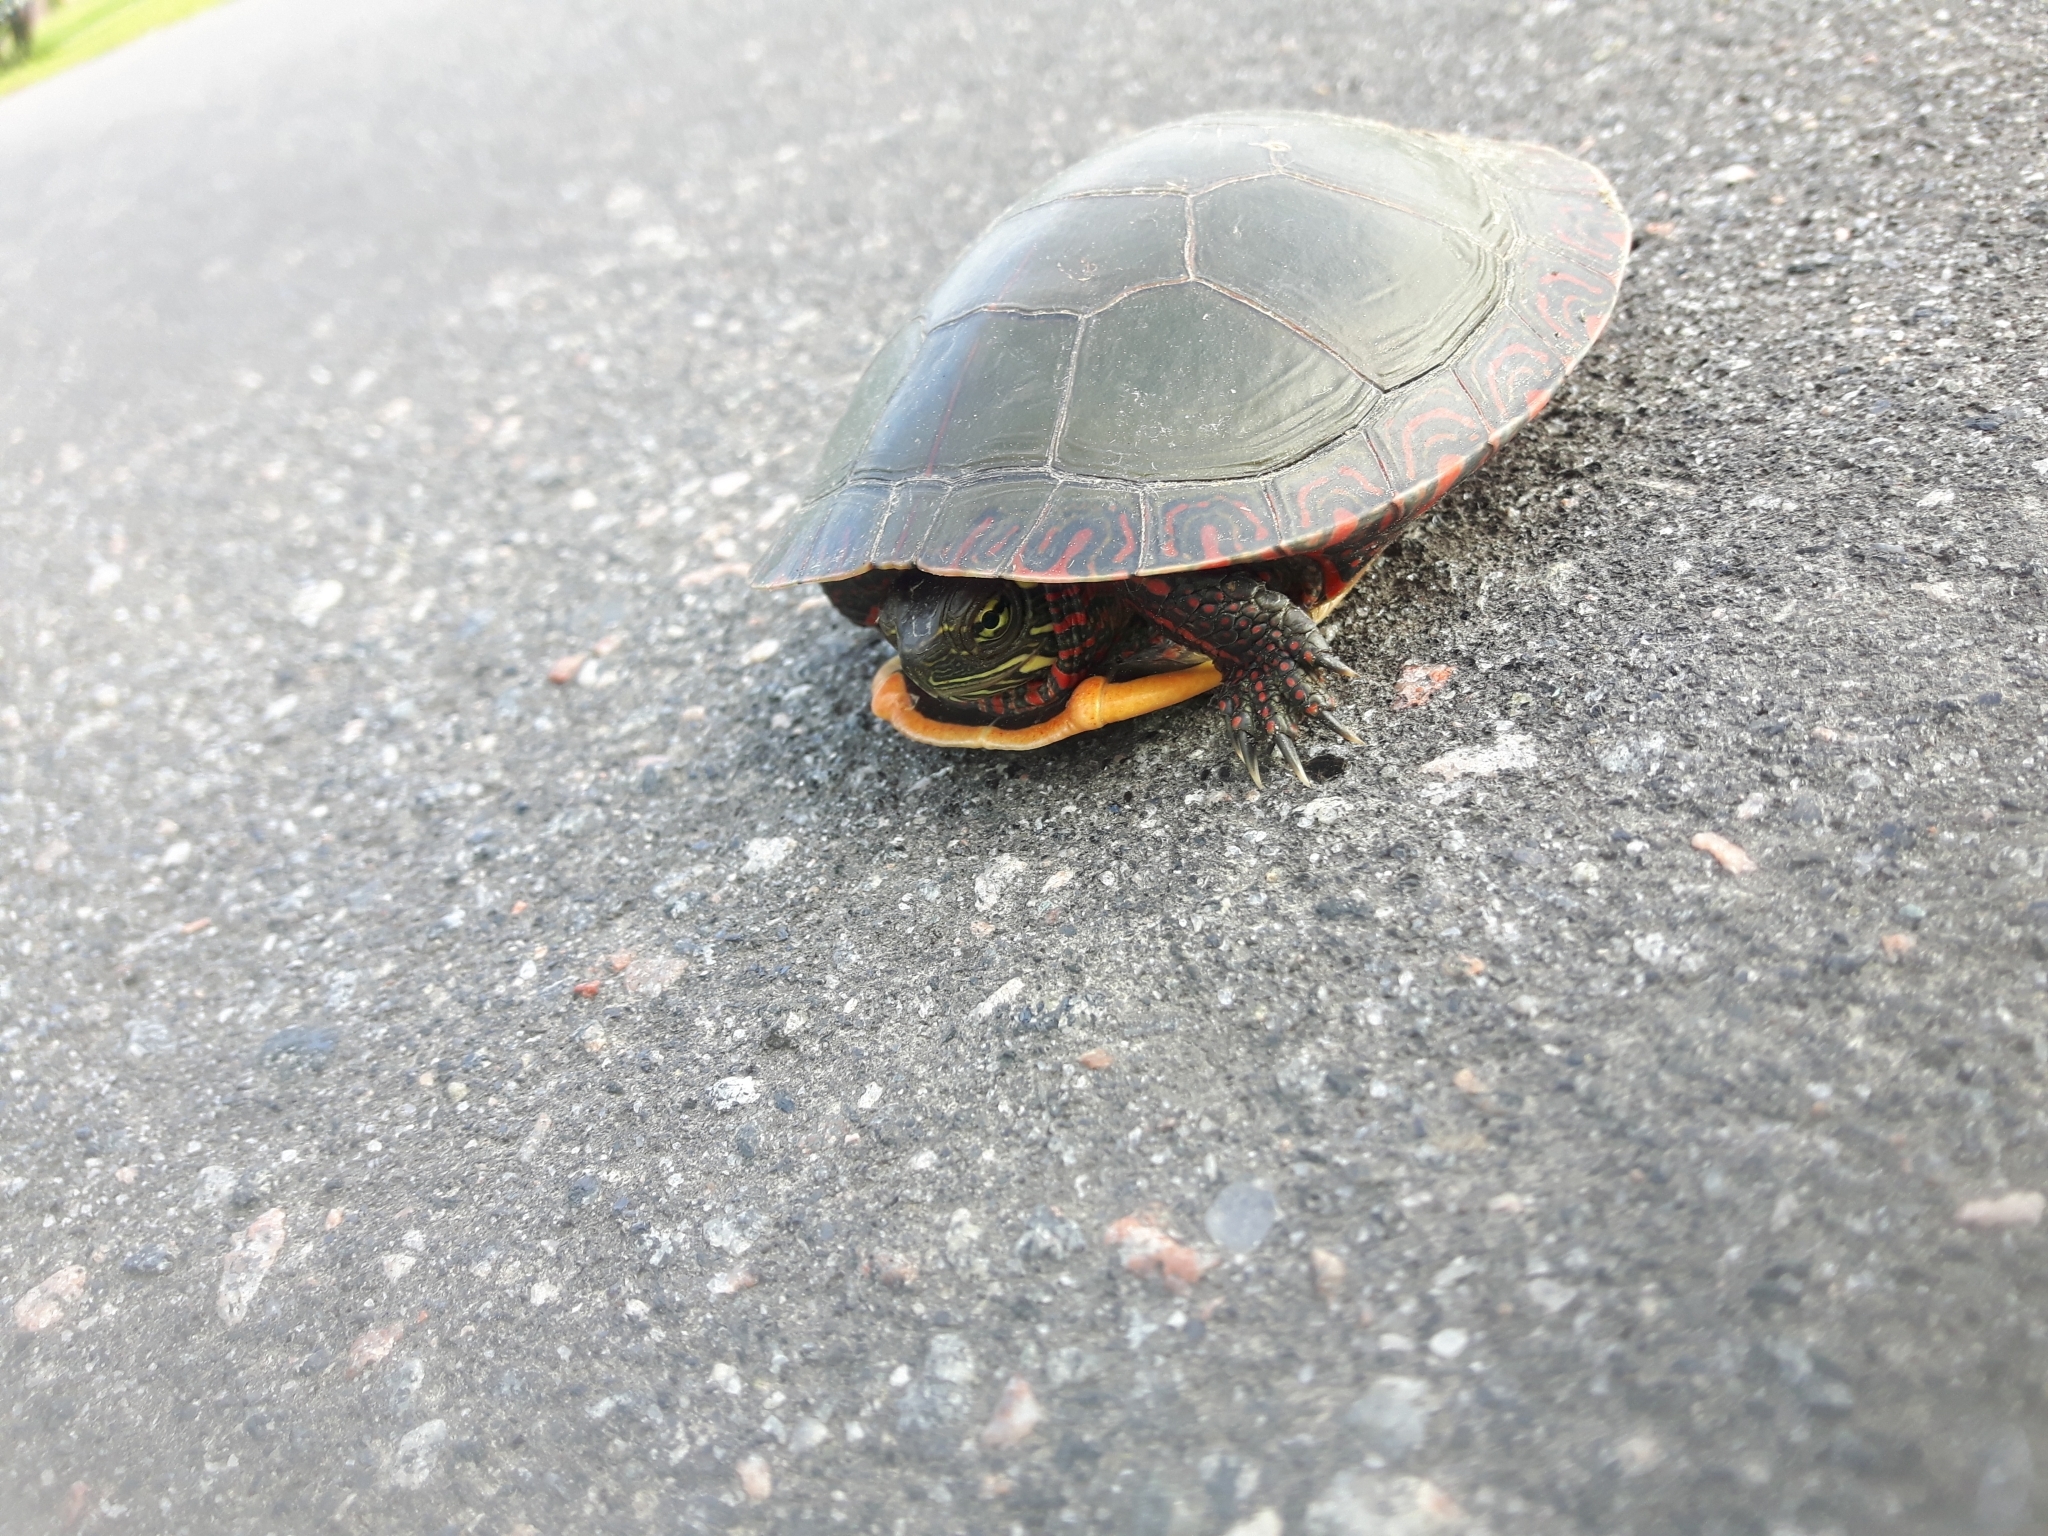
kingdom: Animalia
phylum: Chordata
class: Testudines
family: Emydidae
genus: Chrysemys
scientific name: Chrysemys picta
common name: Painted turtle
